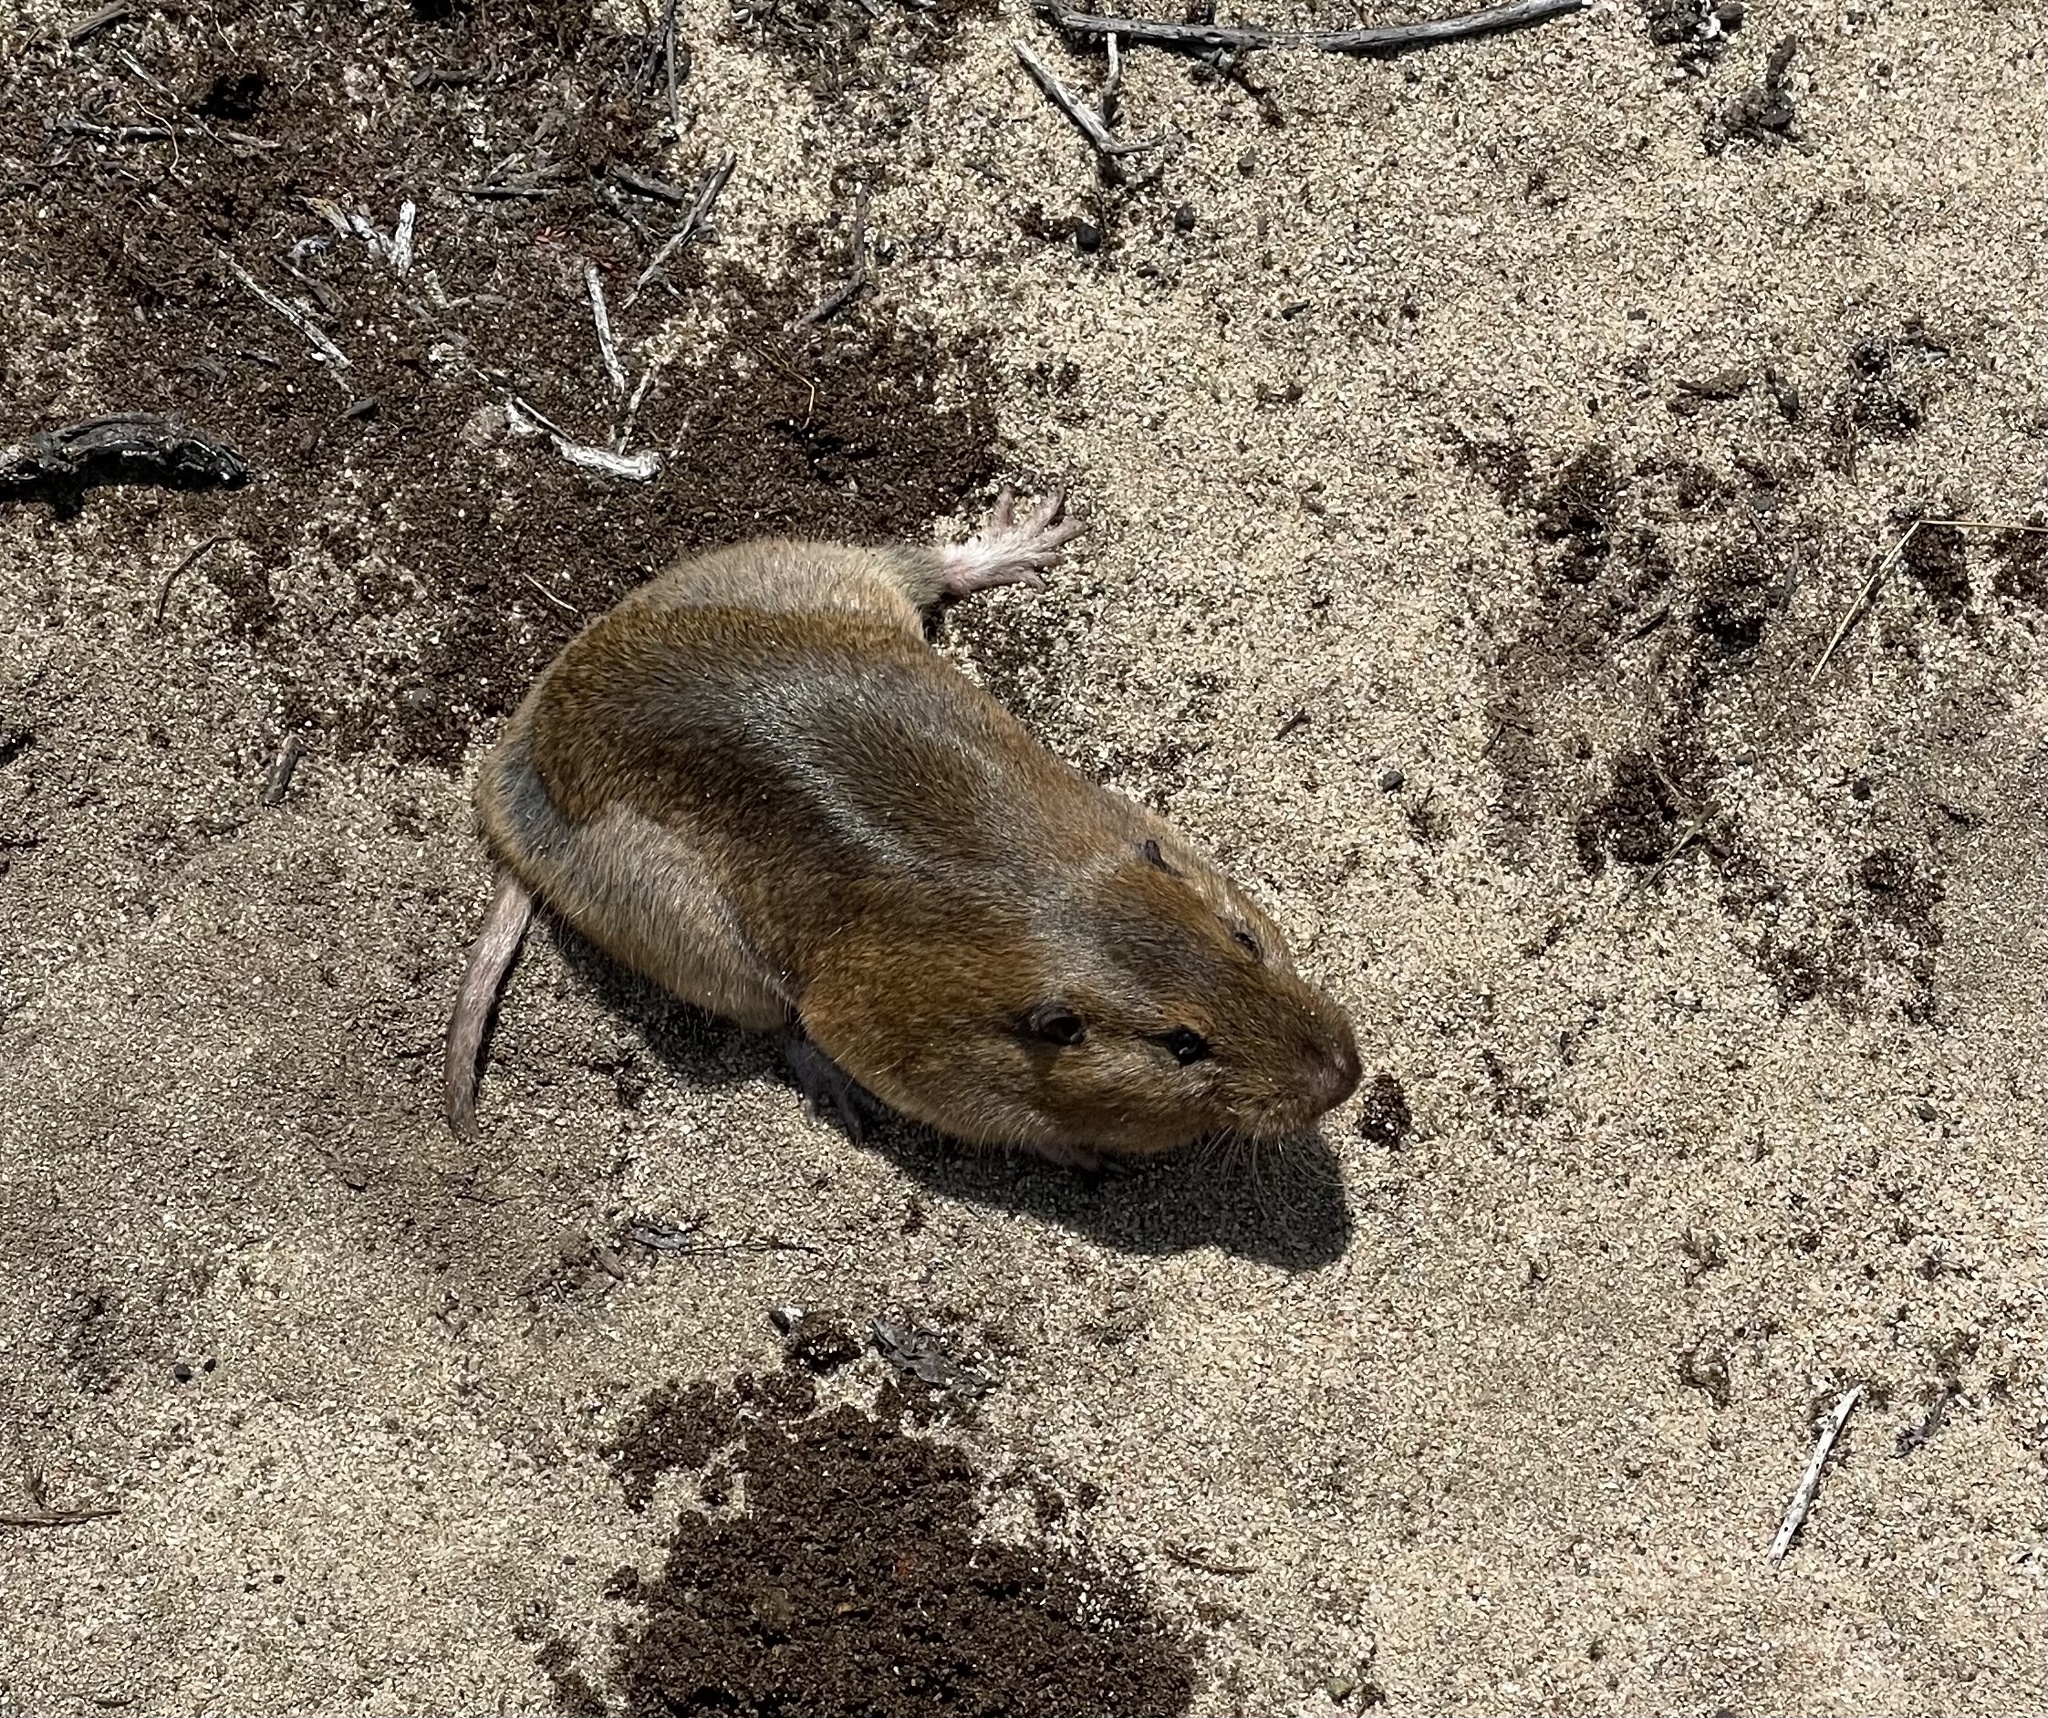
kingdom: Animalia
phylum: Chordata
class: Mammalia
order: Rodentia
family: Geomyidae
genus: Thomomys
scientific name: Thomomys bottae
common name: Botta's pocket gopher
